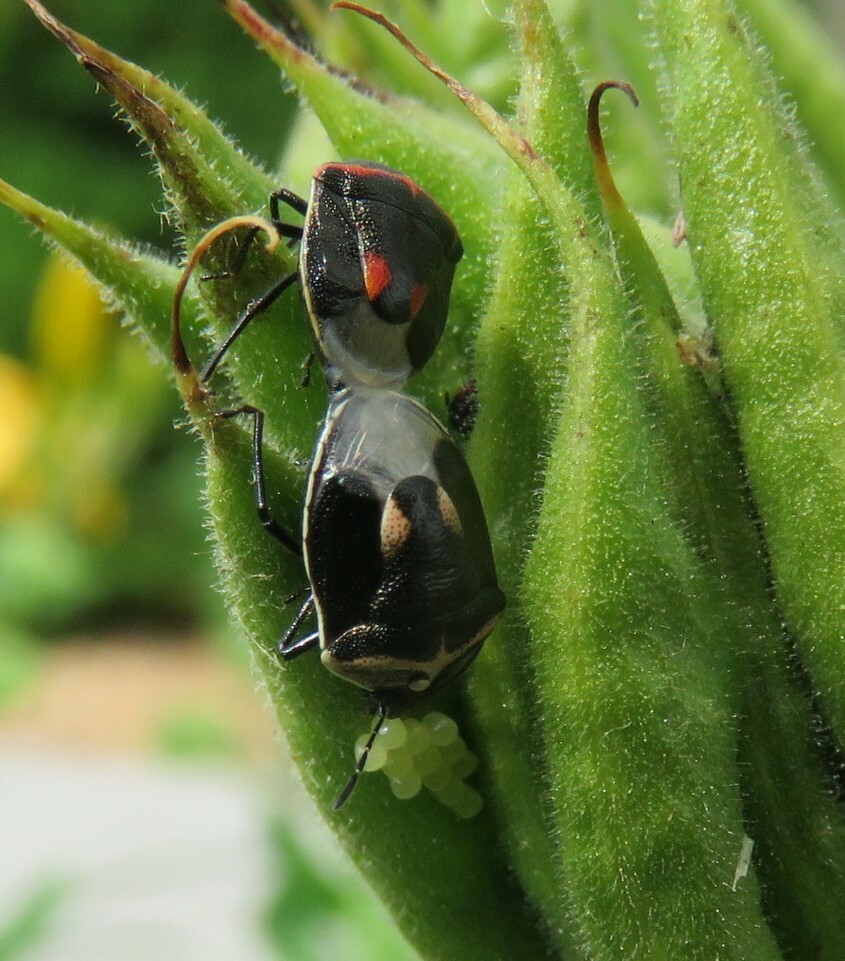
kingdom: Animalia
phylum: Arthropoda
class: Insecta
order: Hemiptera
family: Pentatomidae
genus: Cosmopepla
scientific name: Cosmopepla lintneriana
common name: Twice-stabbed stink bug
